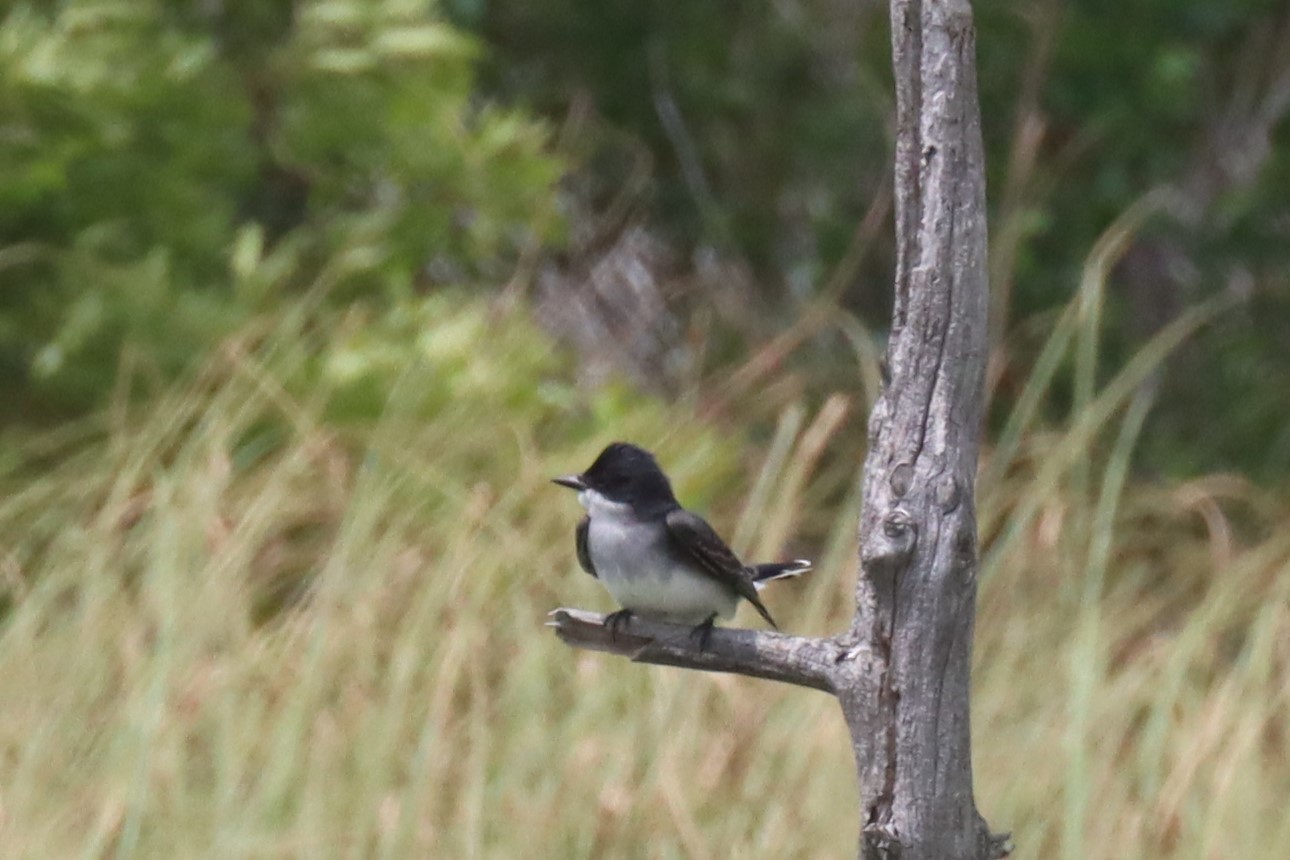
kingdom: Animalia
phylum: Chordata
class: Aves
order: Passeriformes
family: Tyrannidae
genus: Tyrannus
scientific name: Tyrannus tyrannus
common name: Eastern kingbird
